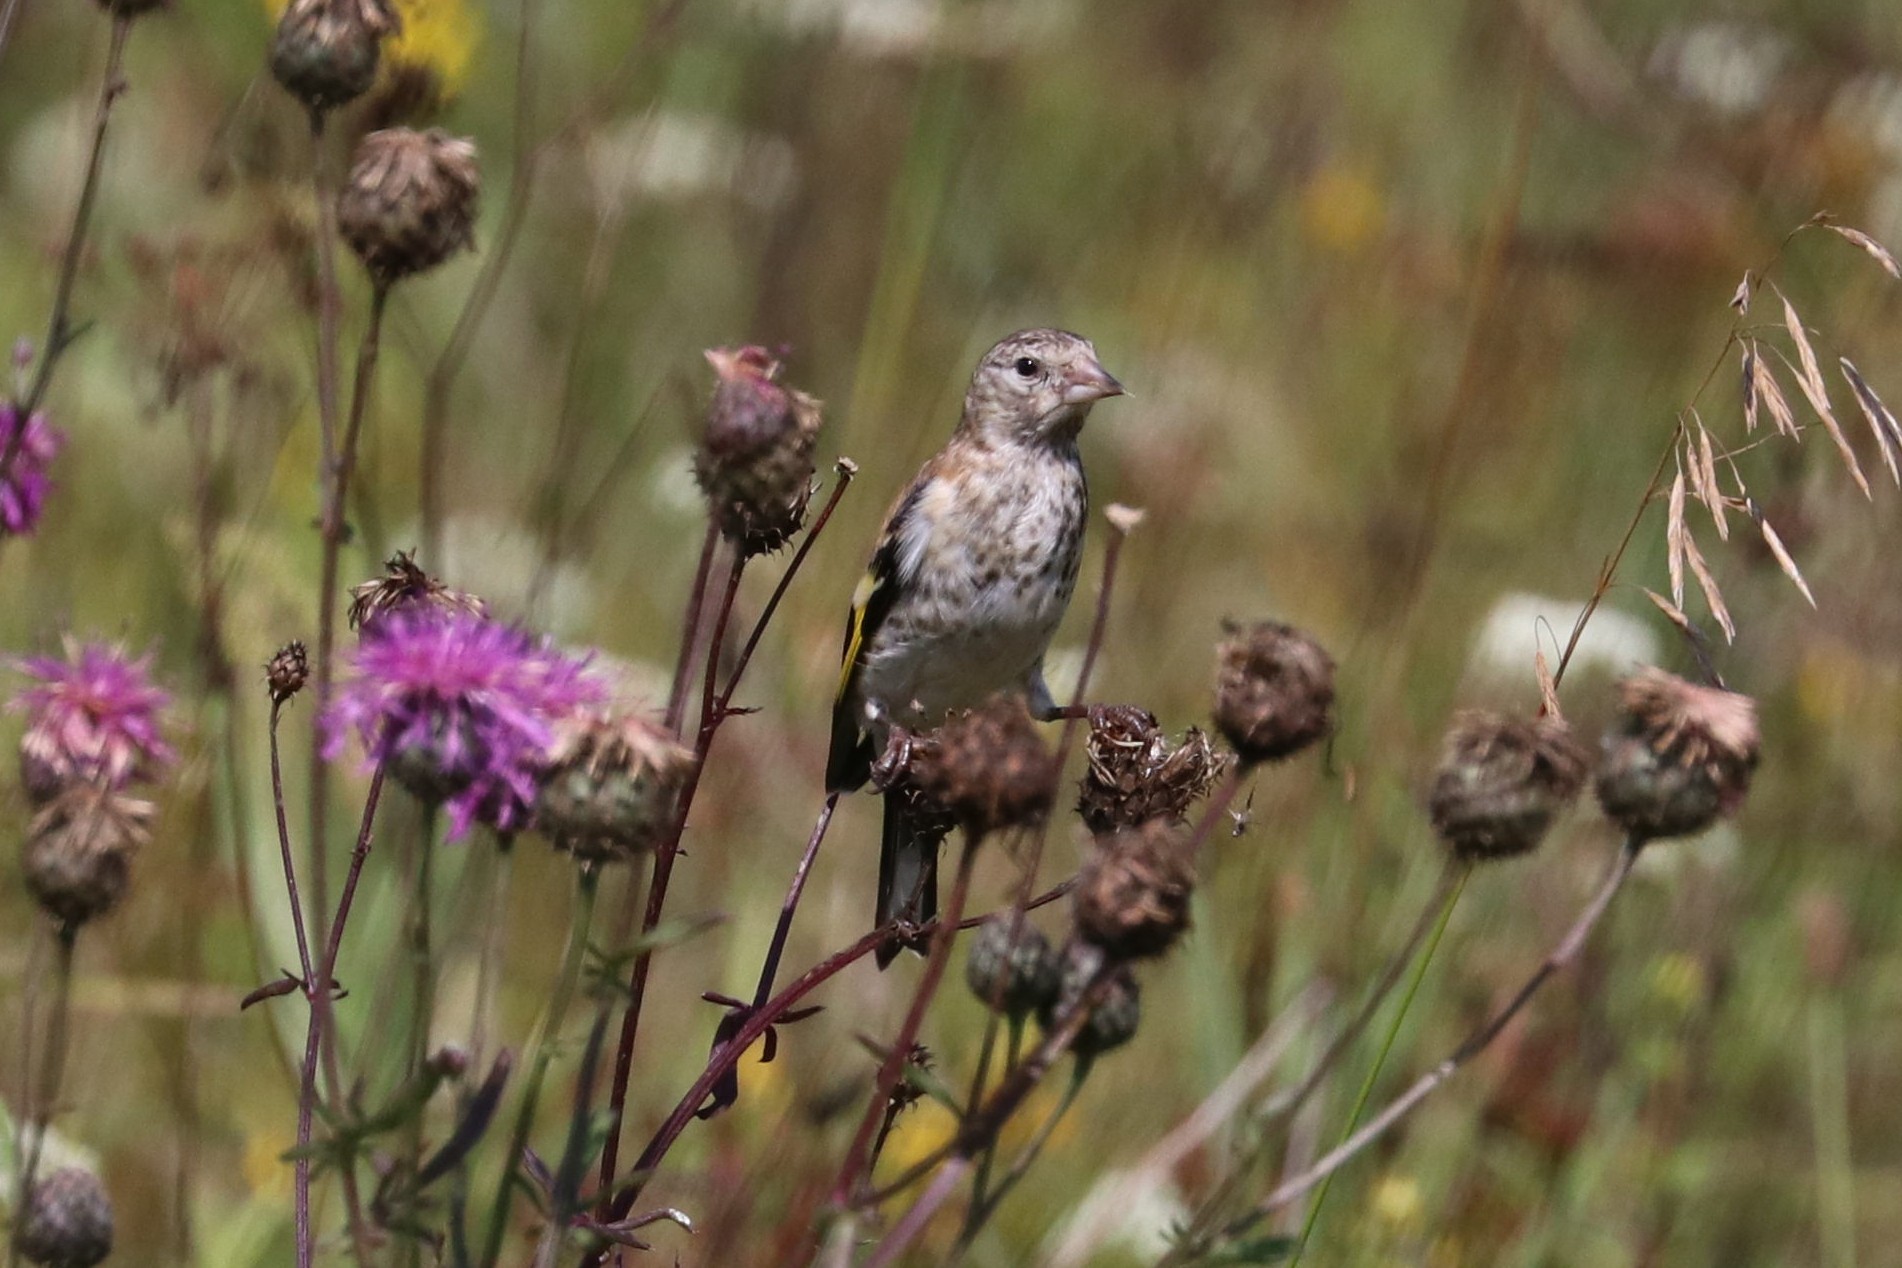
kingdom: Animalia
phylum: Chordata
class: Aves
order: Passeriformes
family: Fringillidae
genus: Carduelis
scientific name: Carduelis carduelis
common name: European goldfinch
